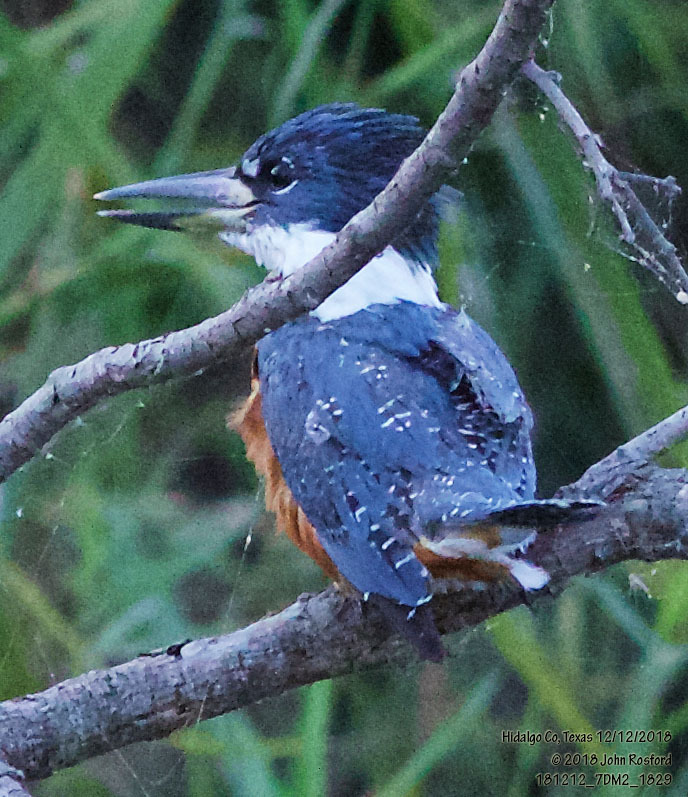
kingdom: Animalia
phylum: Chordata
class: Aves
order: Coraciiformes
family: Alcedinidae
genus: Megaceryle
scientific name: Megaceryle torquata
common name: Ringed kingfisher
